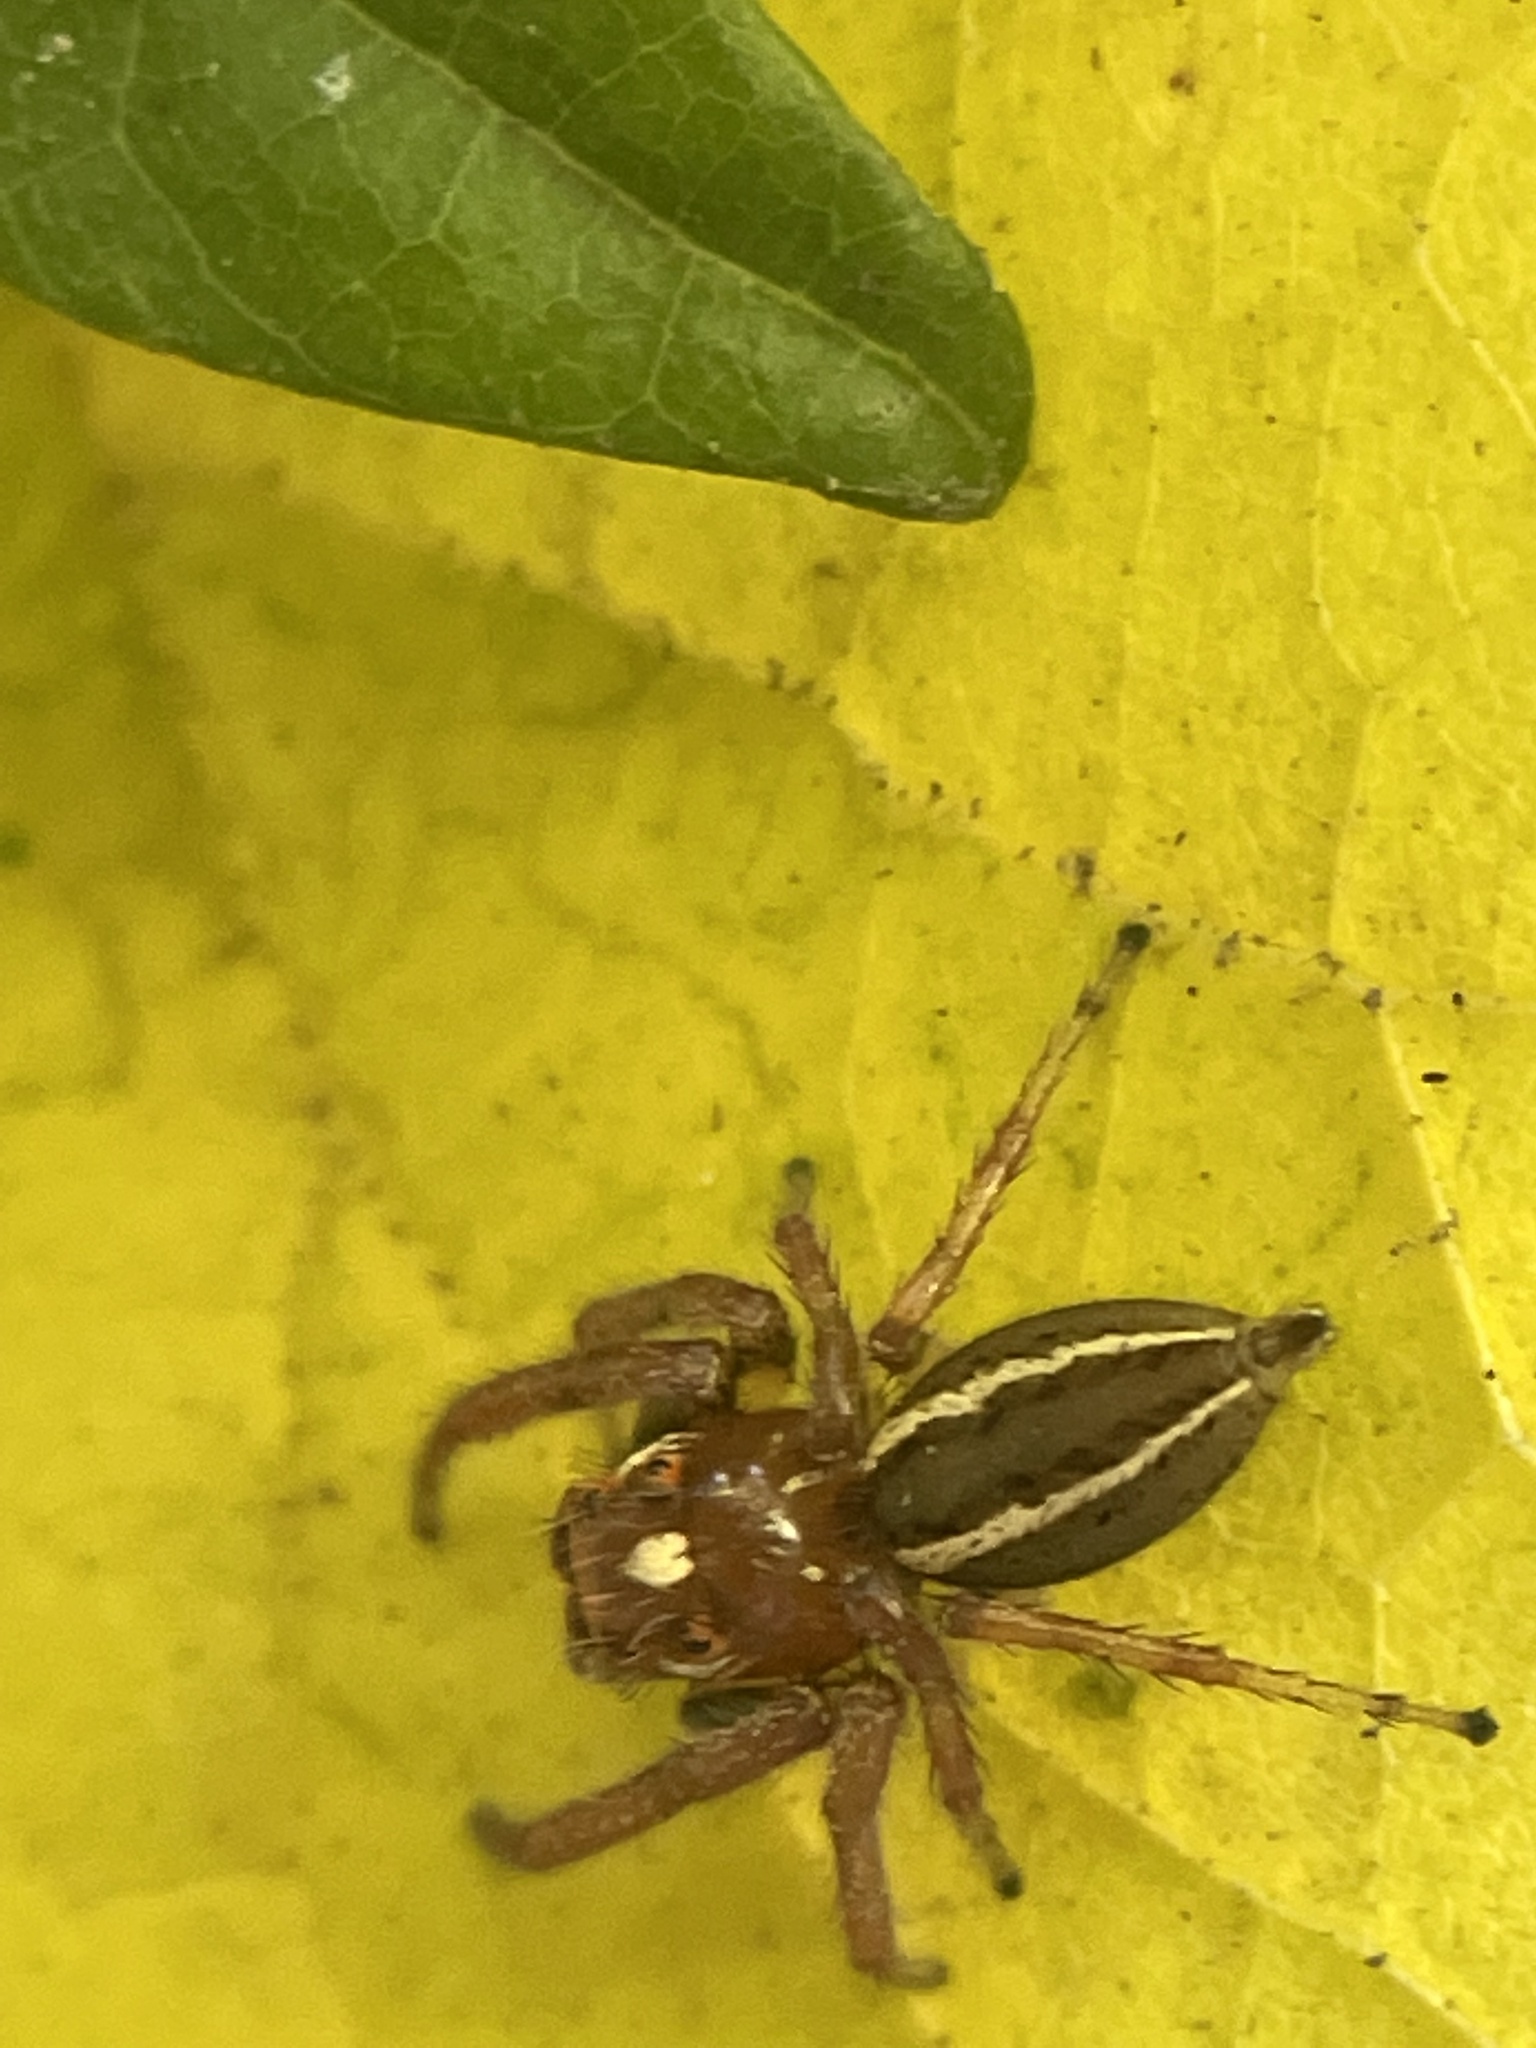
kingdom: Animalia
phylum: Arthropoda
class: Arachnida
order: Araneae
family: Salticidae
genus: Colonus
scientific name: Colonus sylvanus
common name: Jumping spiders
